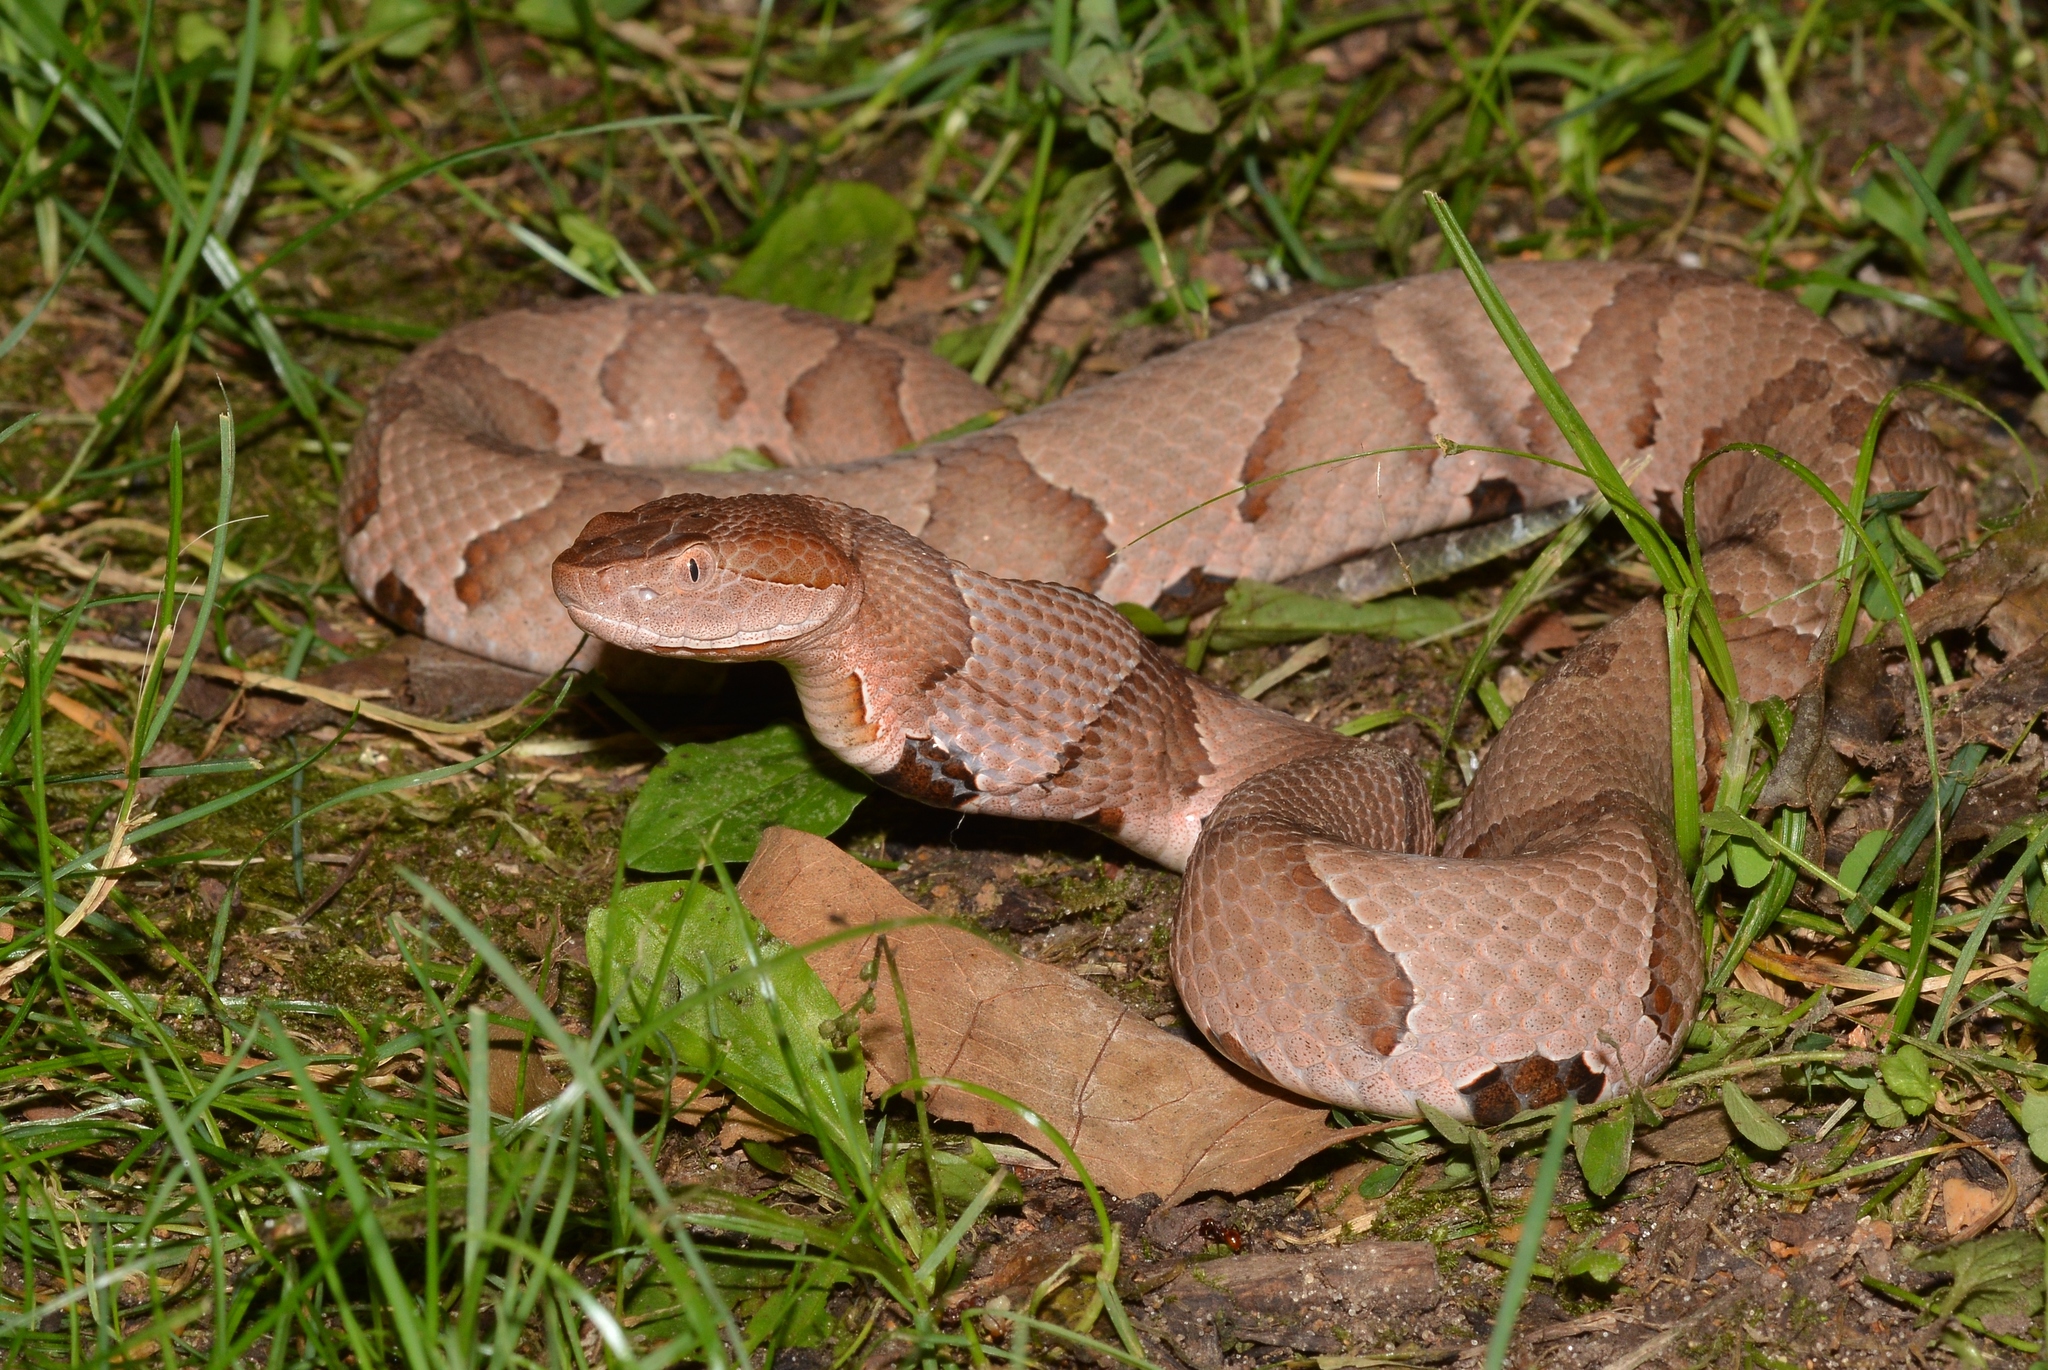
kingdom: Animalia
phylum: Chordata
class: Squamata
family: Viperidae
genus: Agkistrodon
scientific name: Agkistrodon contortrix
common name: Northern copperhead
